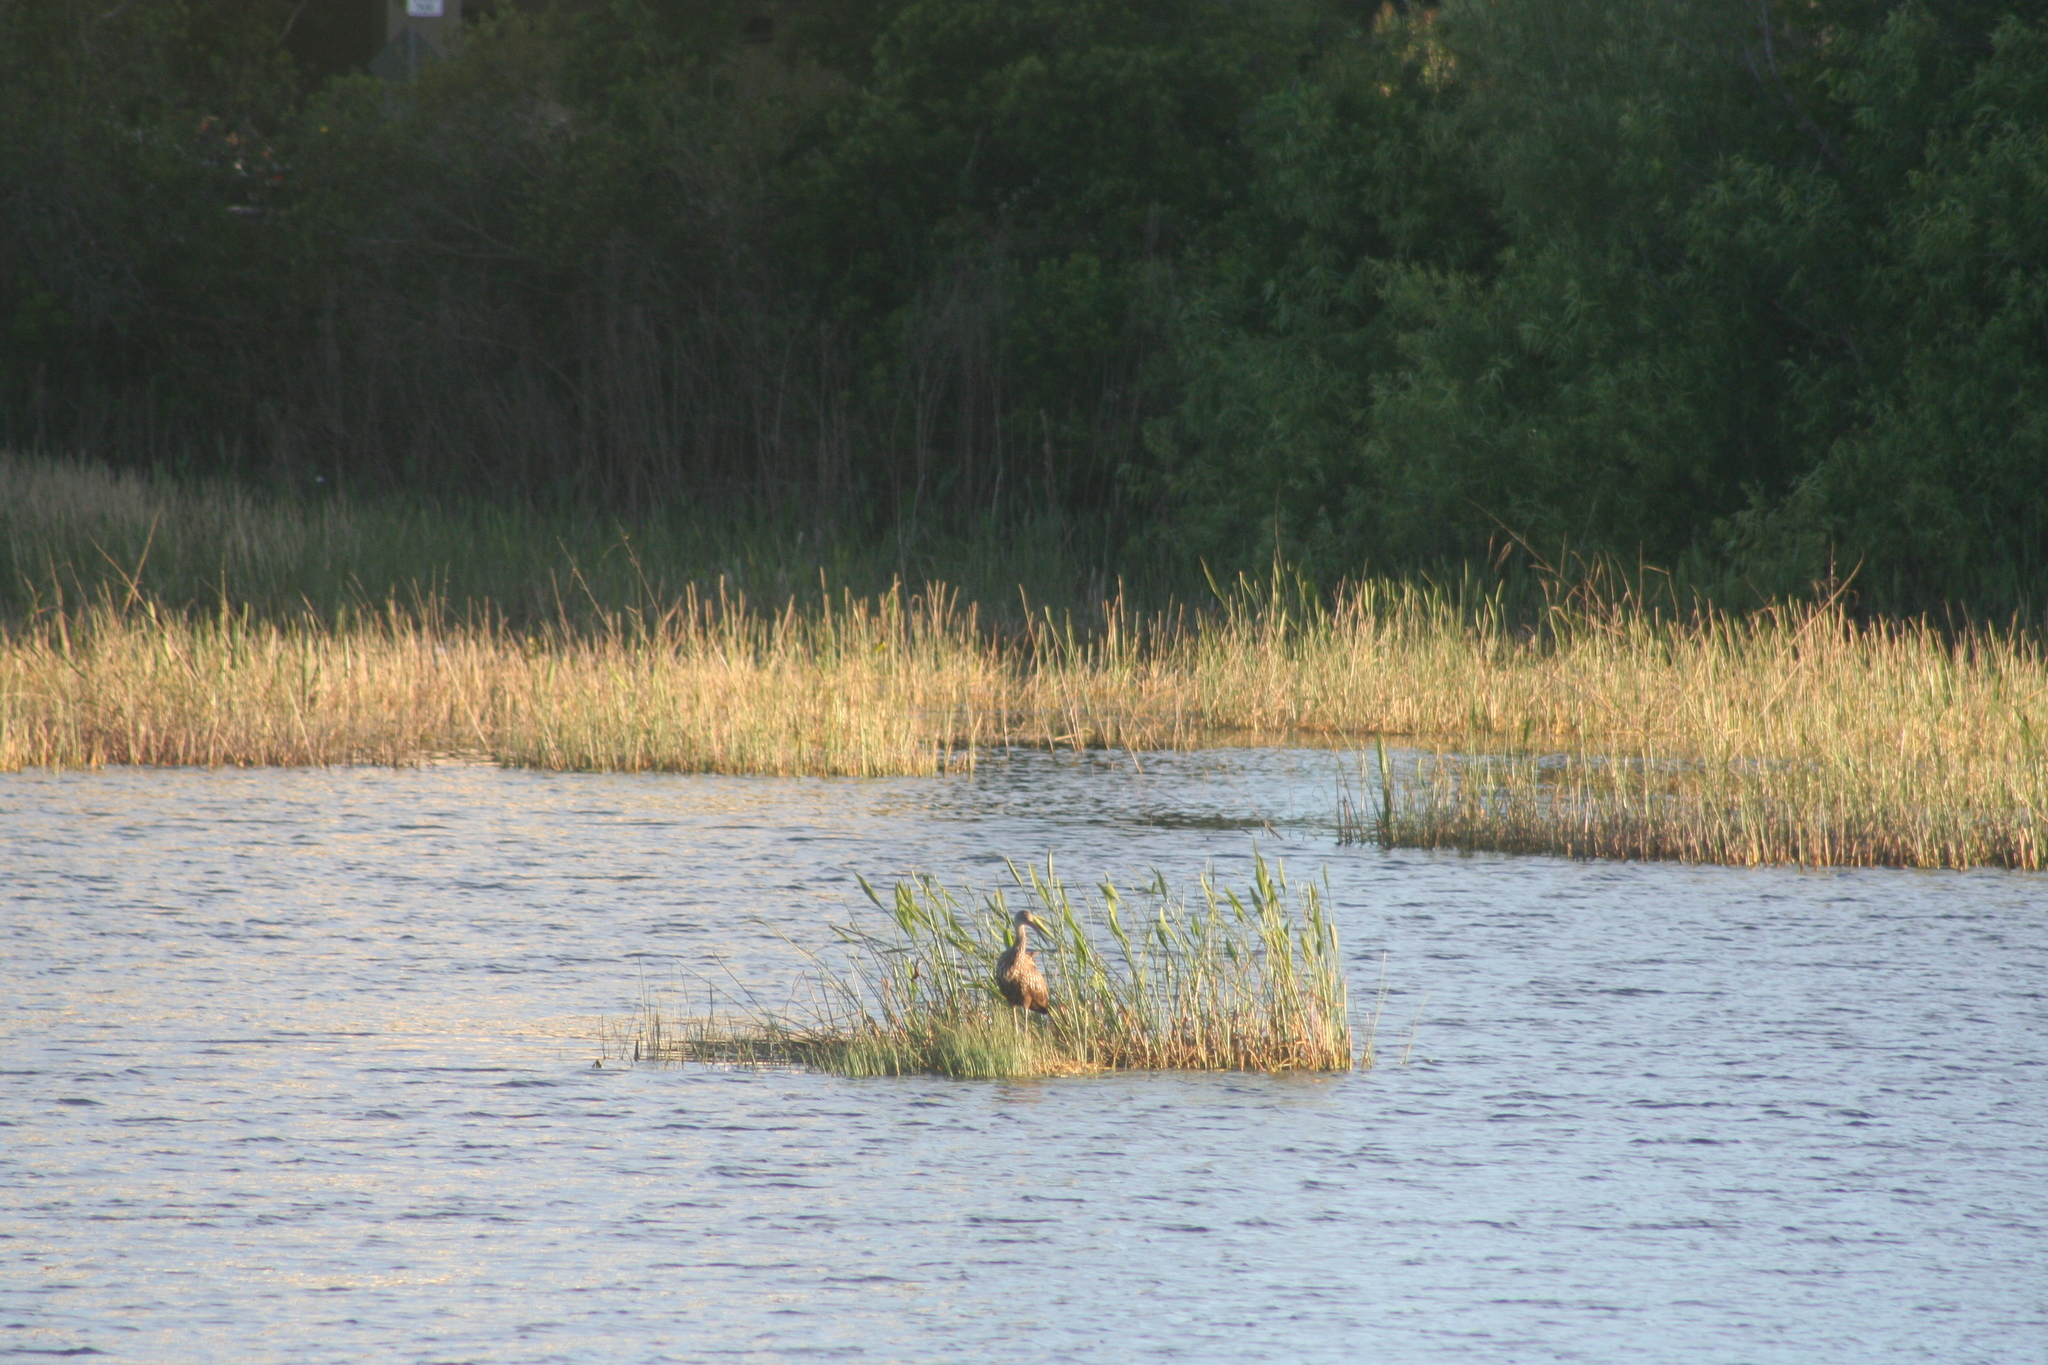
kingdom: Animalia
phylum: Chordata
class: Aves
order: Gruiformes
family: Aramidae
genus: Aramus
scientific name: Aramus guarauna
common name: Limpkin
